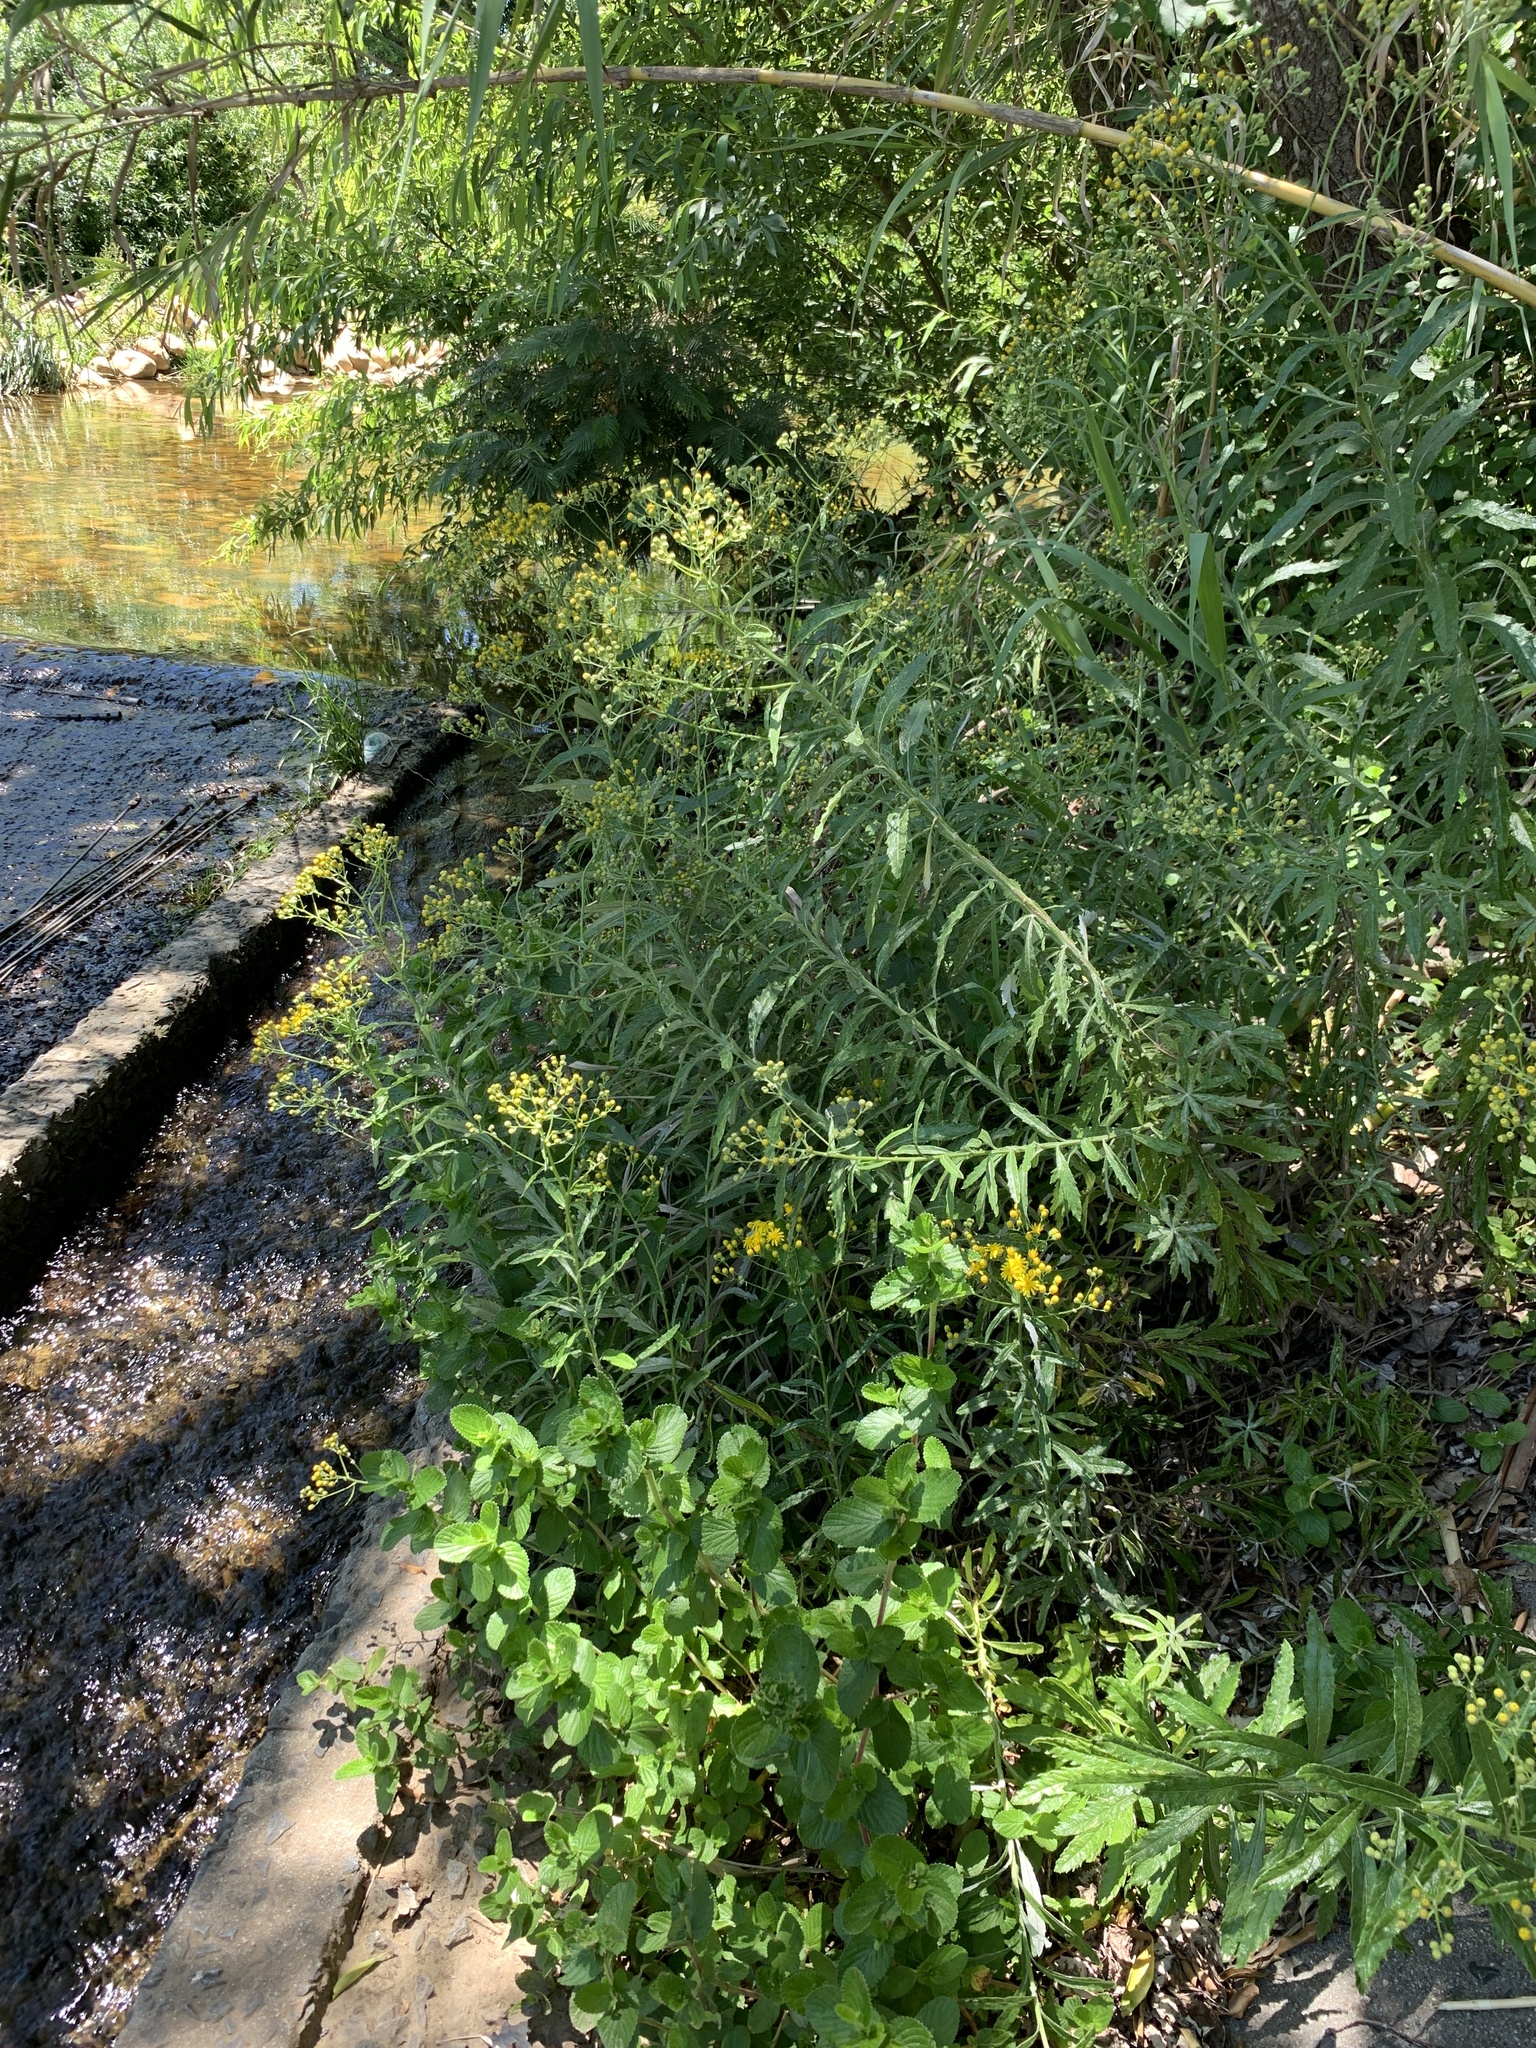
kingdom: Plantae
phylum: Tracheophyta
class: Magnoliopsida
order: Asterales
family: Asteraceae
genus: Senecio
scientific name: Senecio pterophorus
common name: Shoddy ragwort
